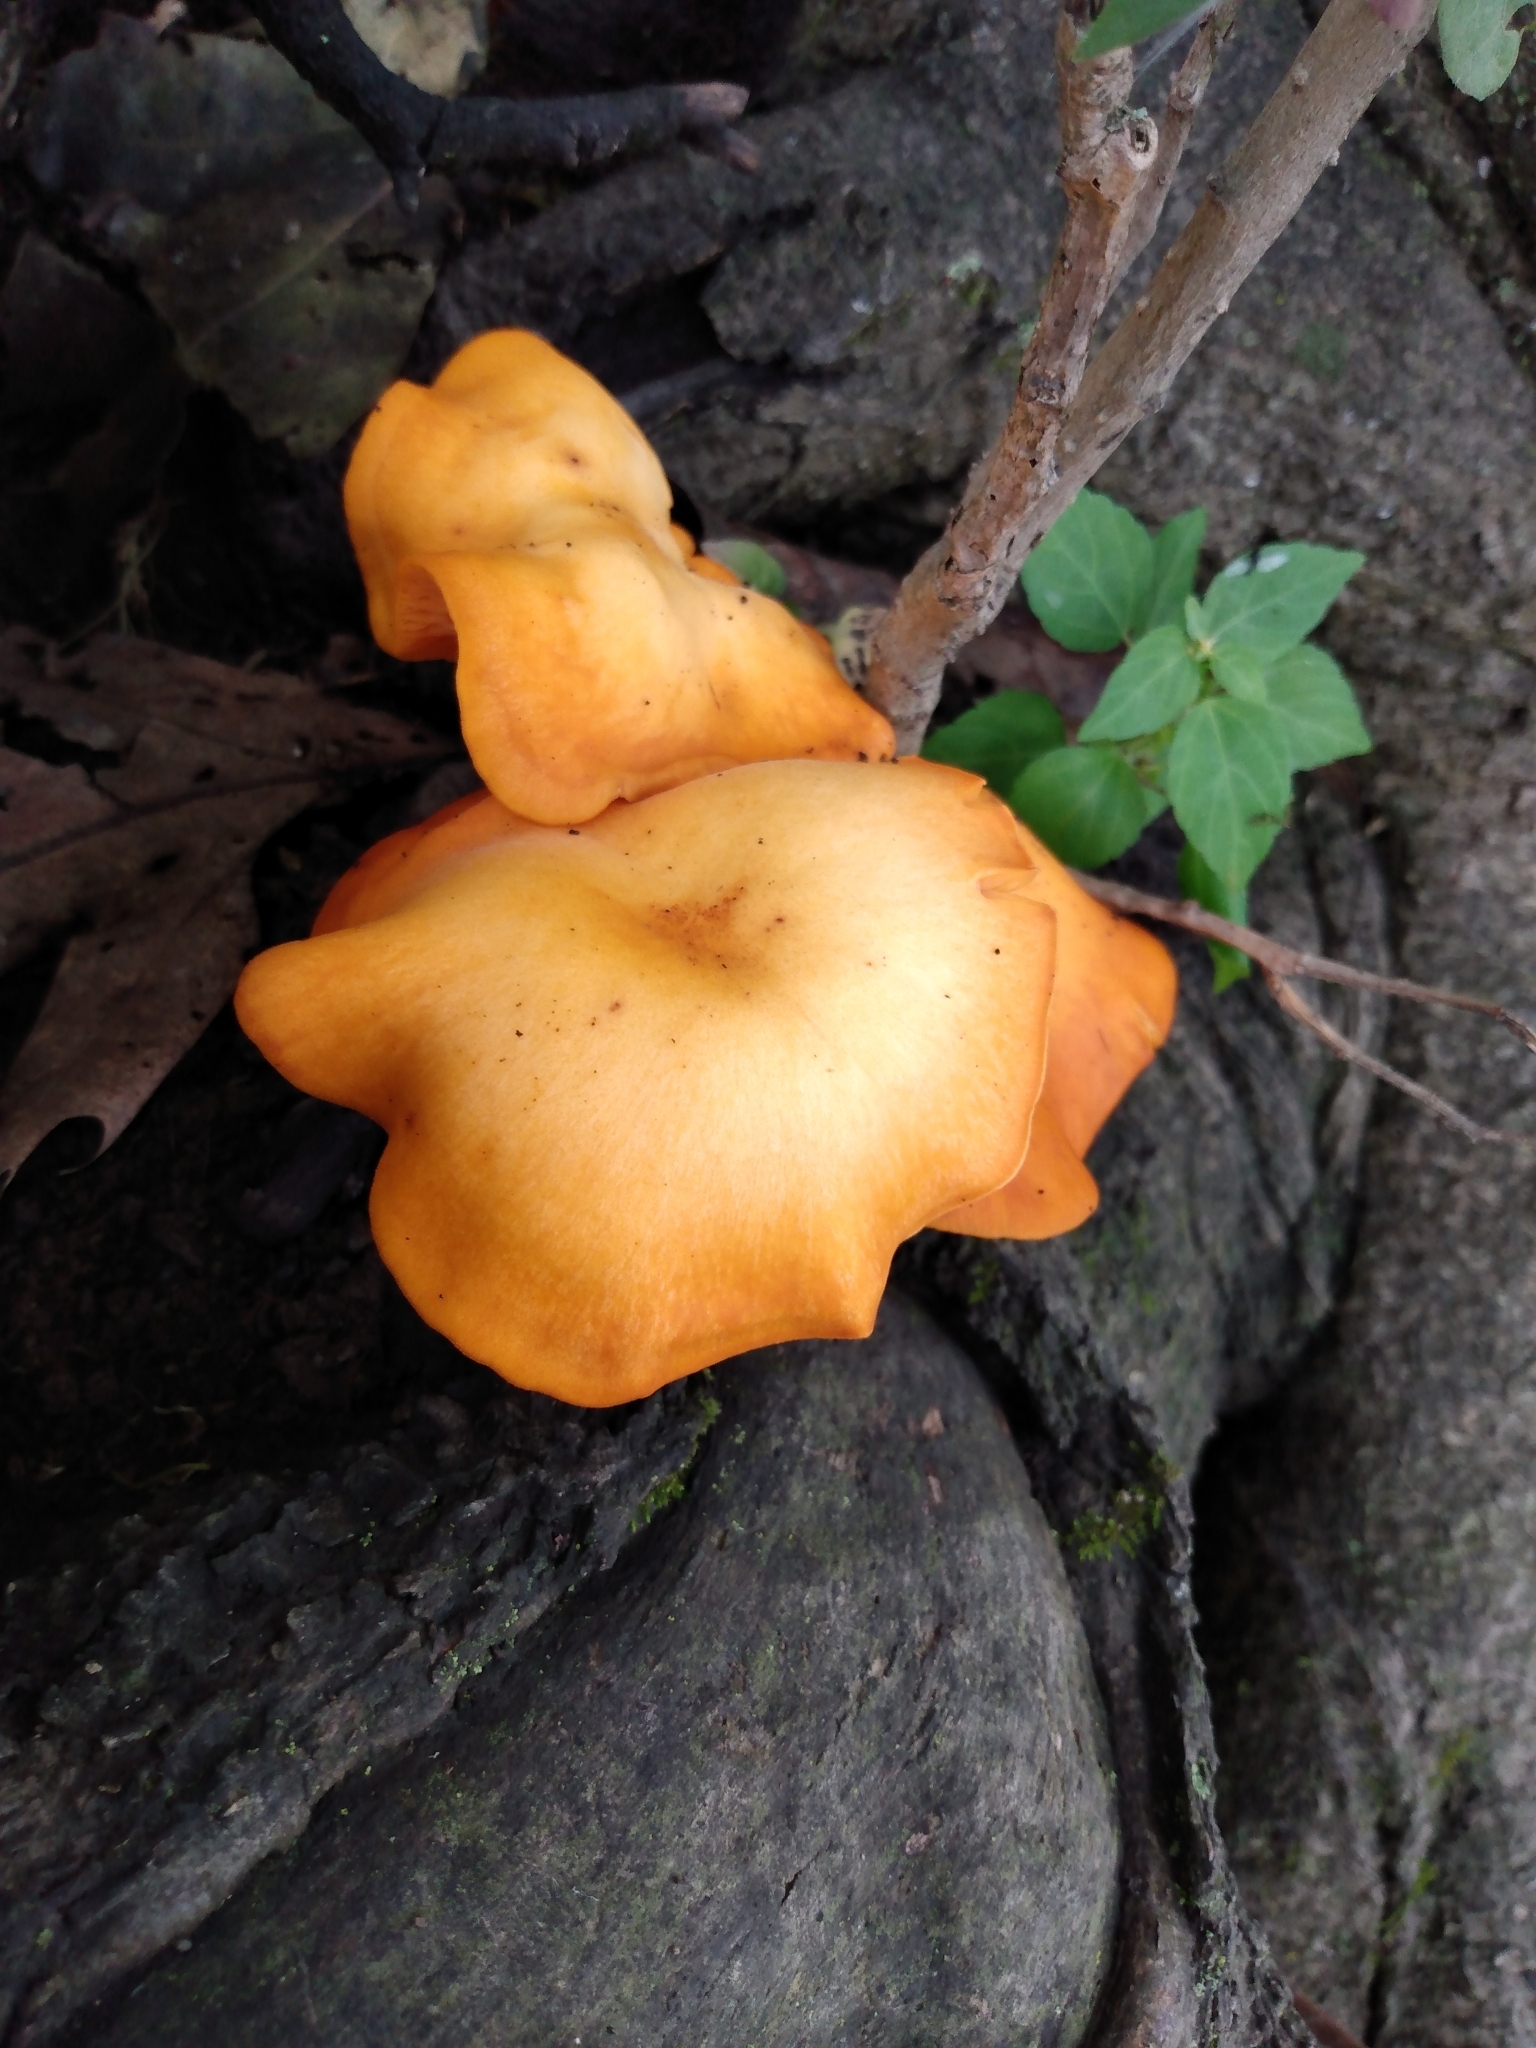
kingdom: Fungi
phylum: Basidiomycota
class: Agaricomycetes
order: Agaricales
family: Omphalotaceae
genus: Omphalotus
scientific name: Omphalotus illudens
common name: Jack o lantern
